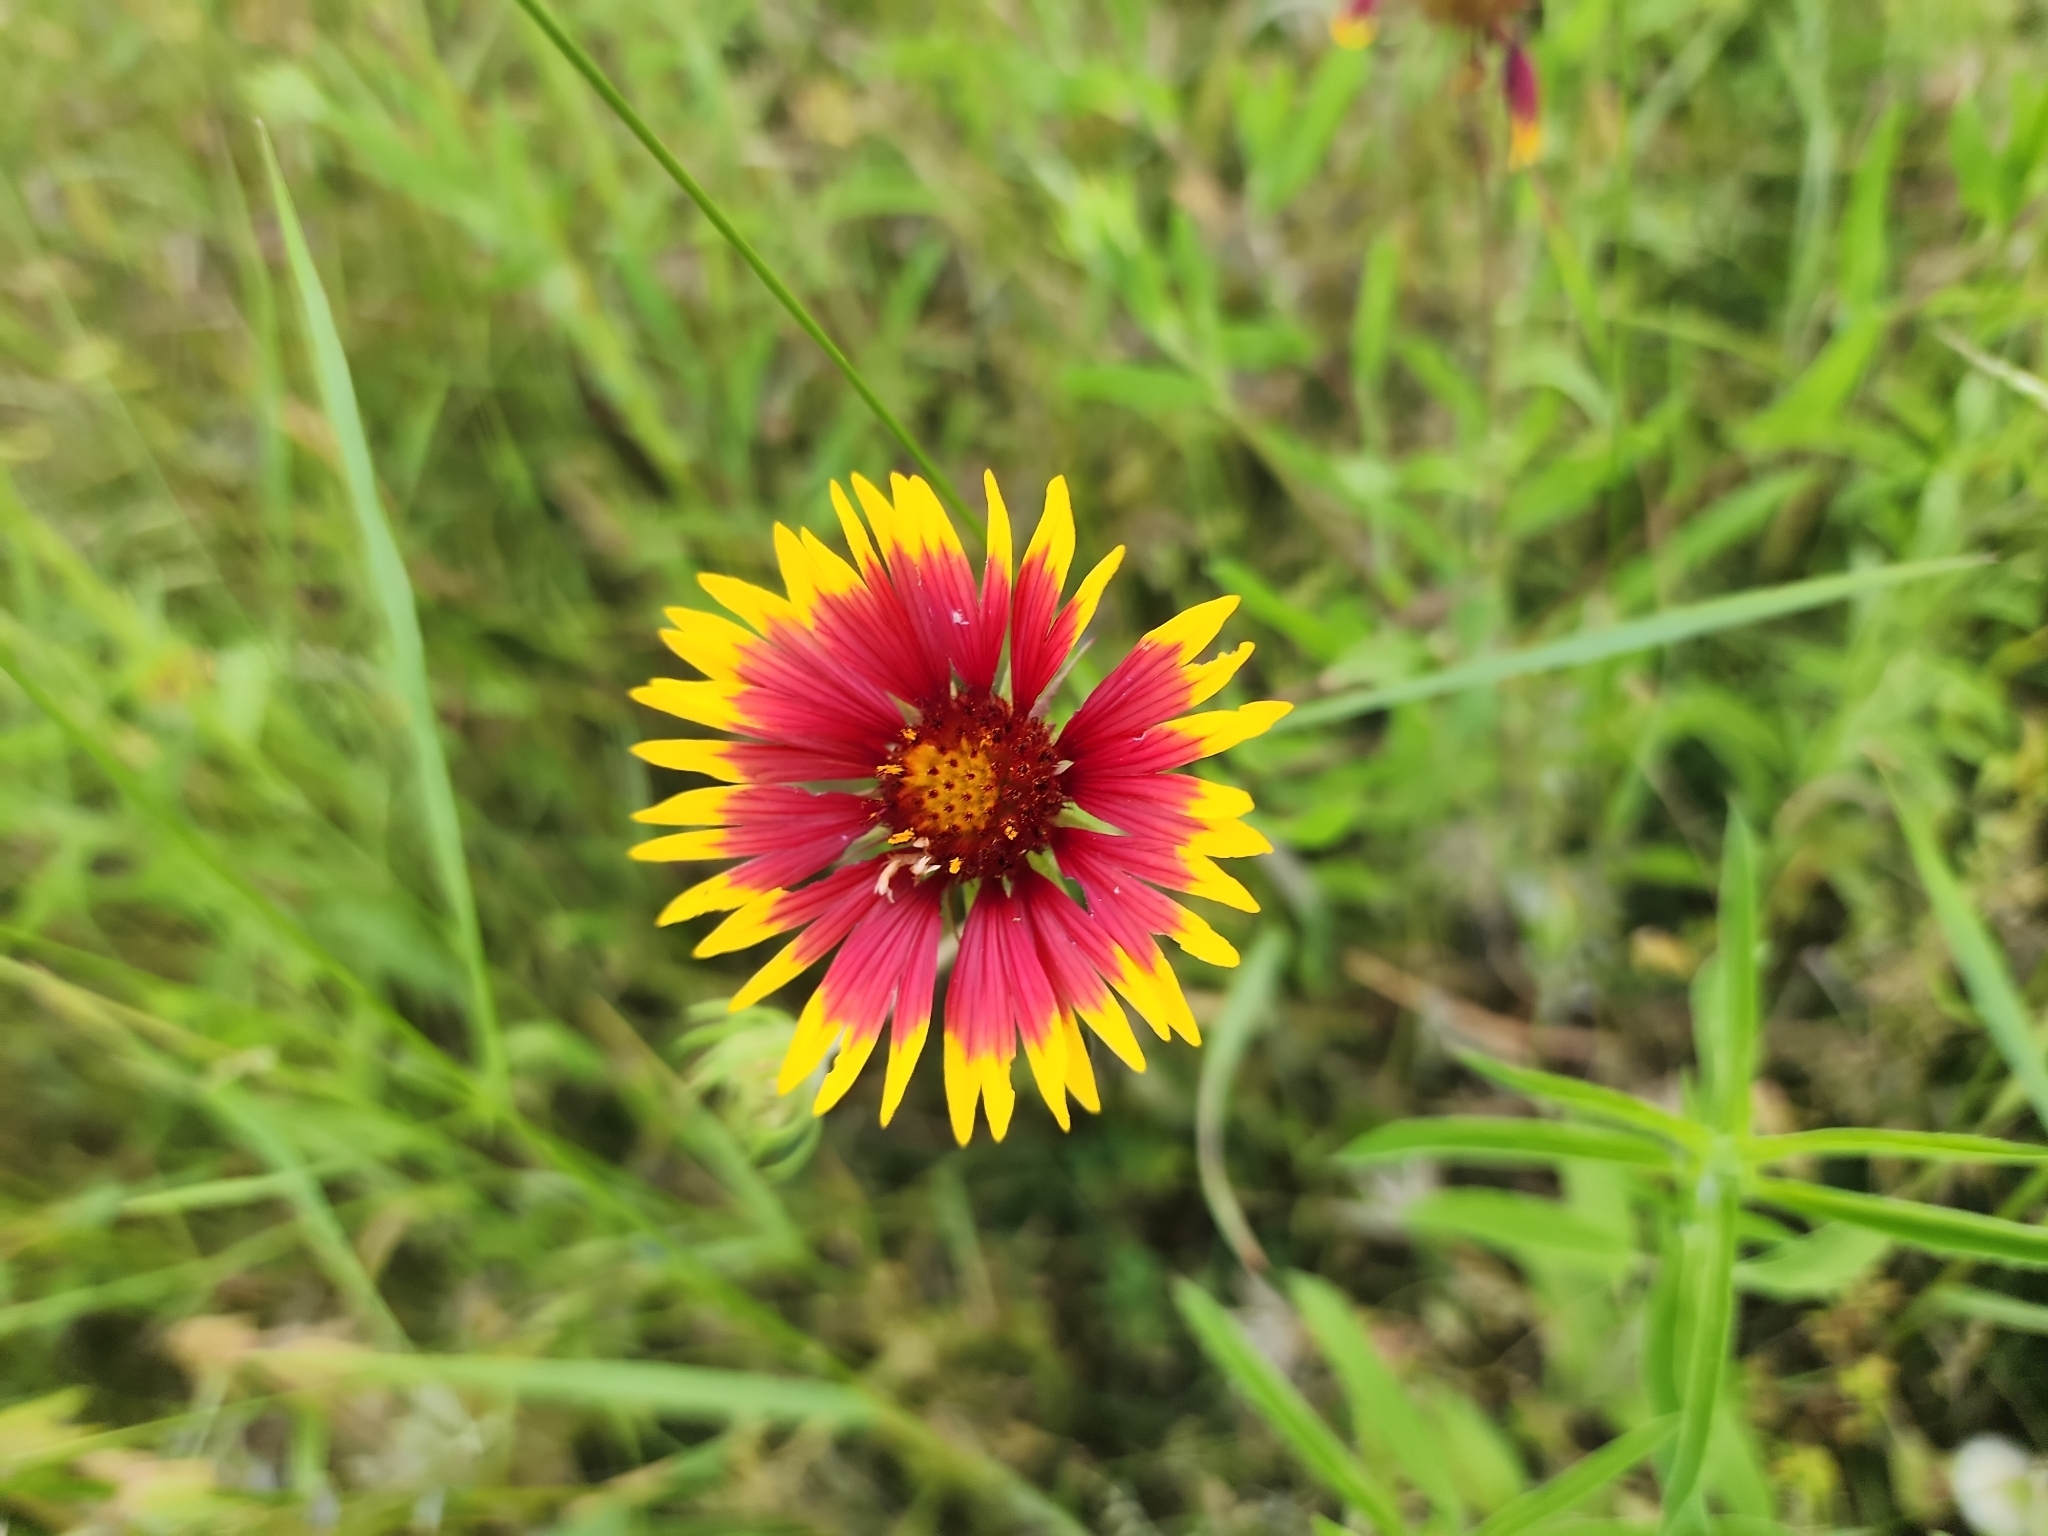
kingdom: Plantae
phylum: Tracheophyta
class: Magnoliopsida
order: Asterales
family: Asteraceae
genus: Gaillardia
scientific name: Gaillardia pulchella
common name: Firewheel
